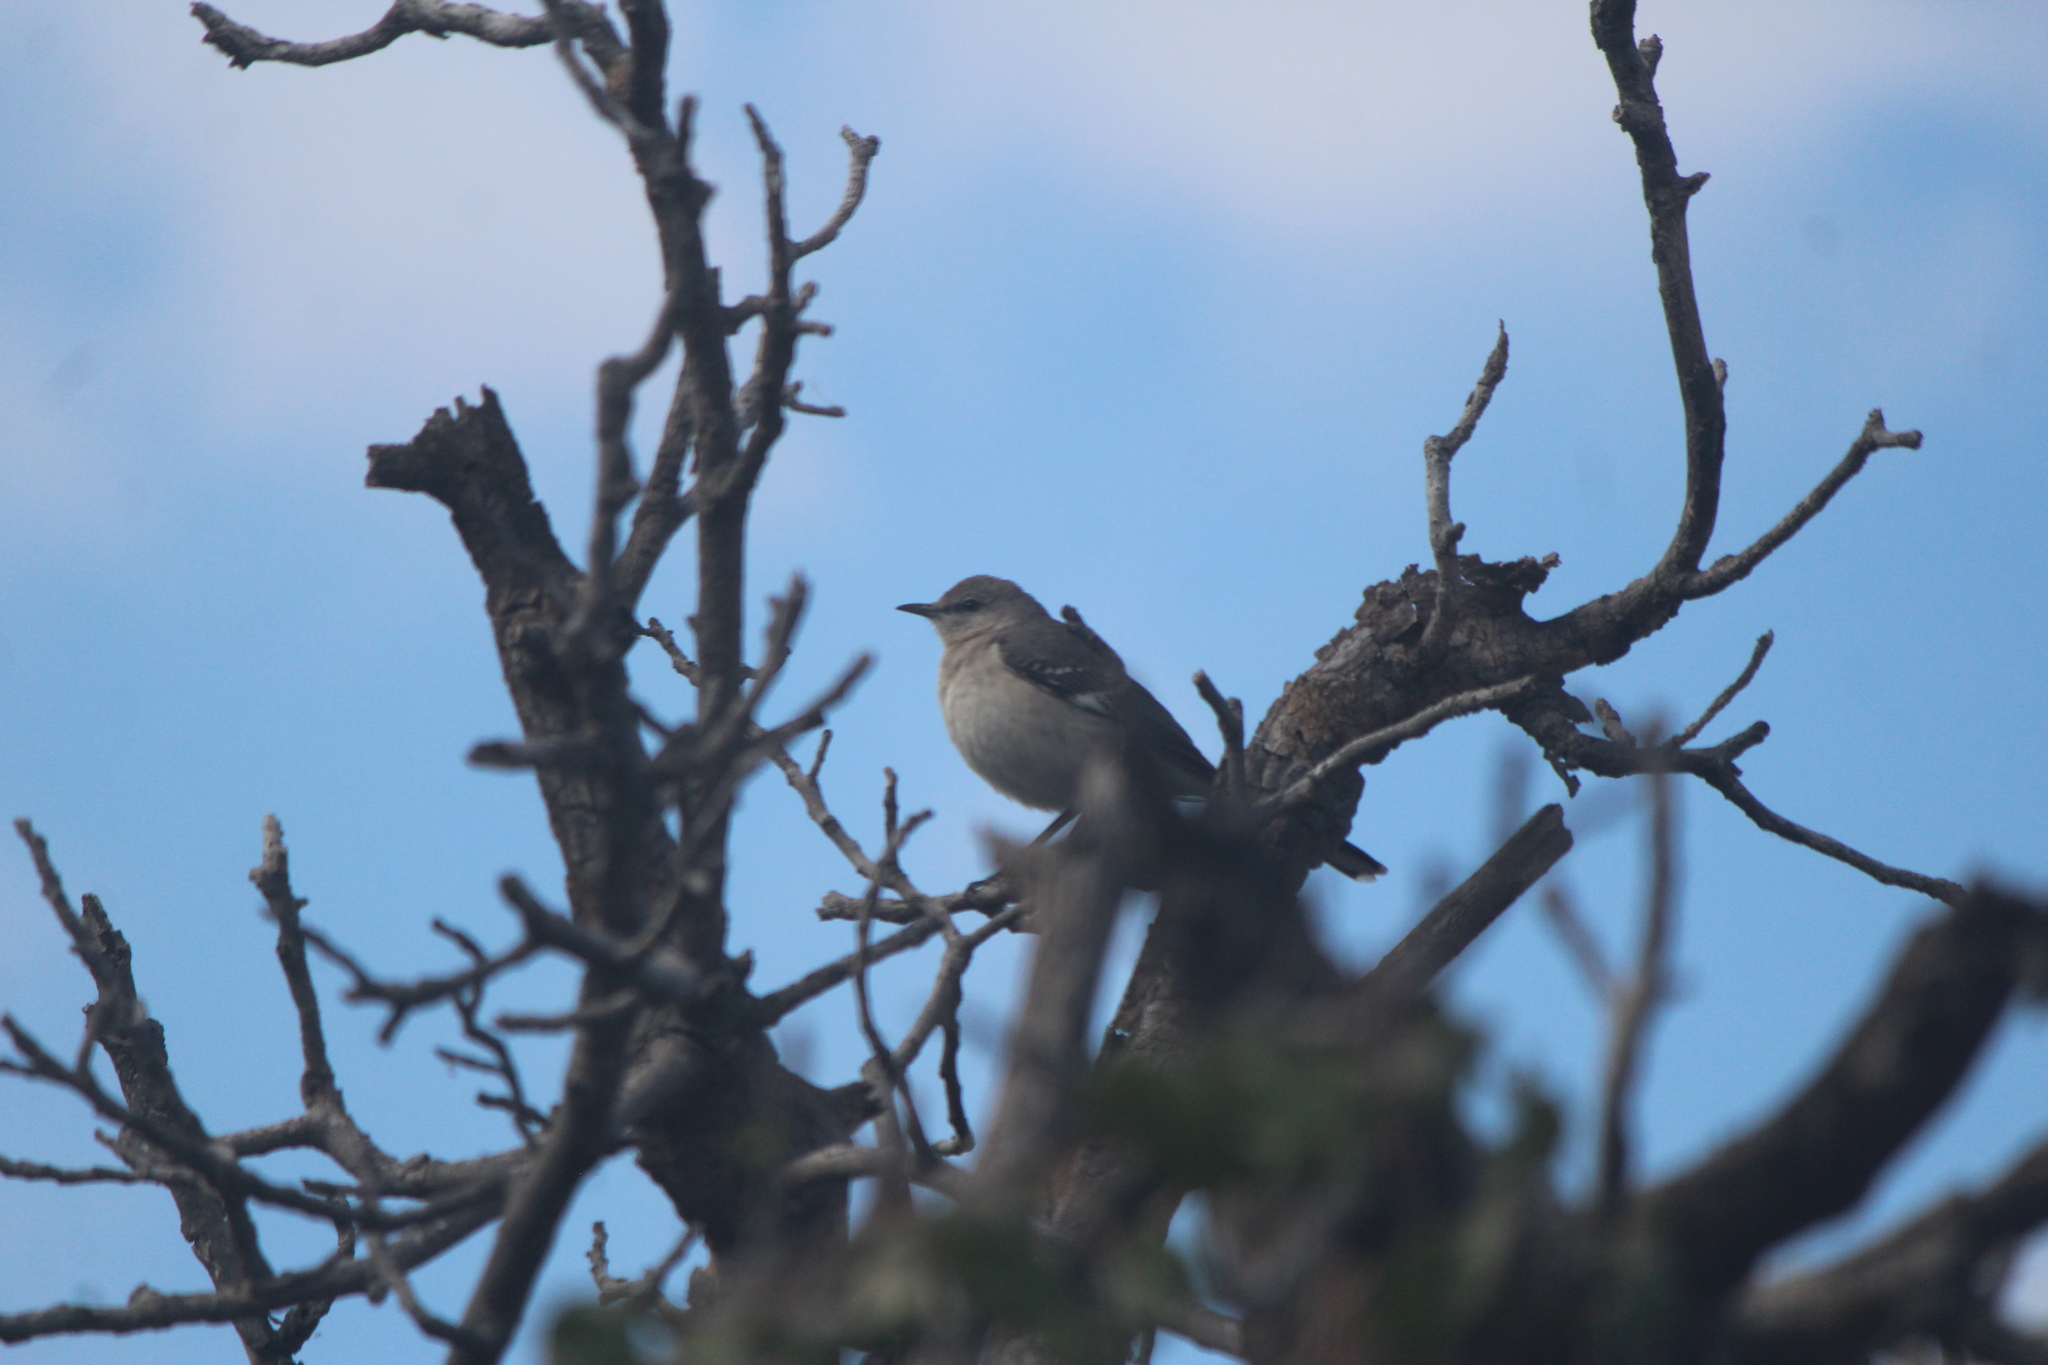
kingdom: Animalia
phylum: Chordata
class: Aves
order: Passeriformes
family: Mimidae
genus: Mimus
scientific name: Mimus polyglottos
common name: Northern mockingbird
